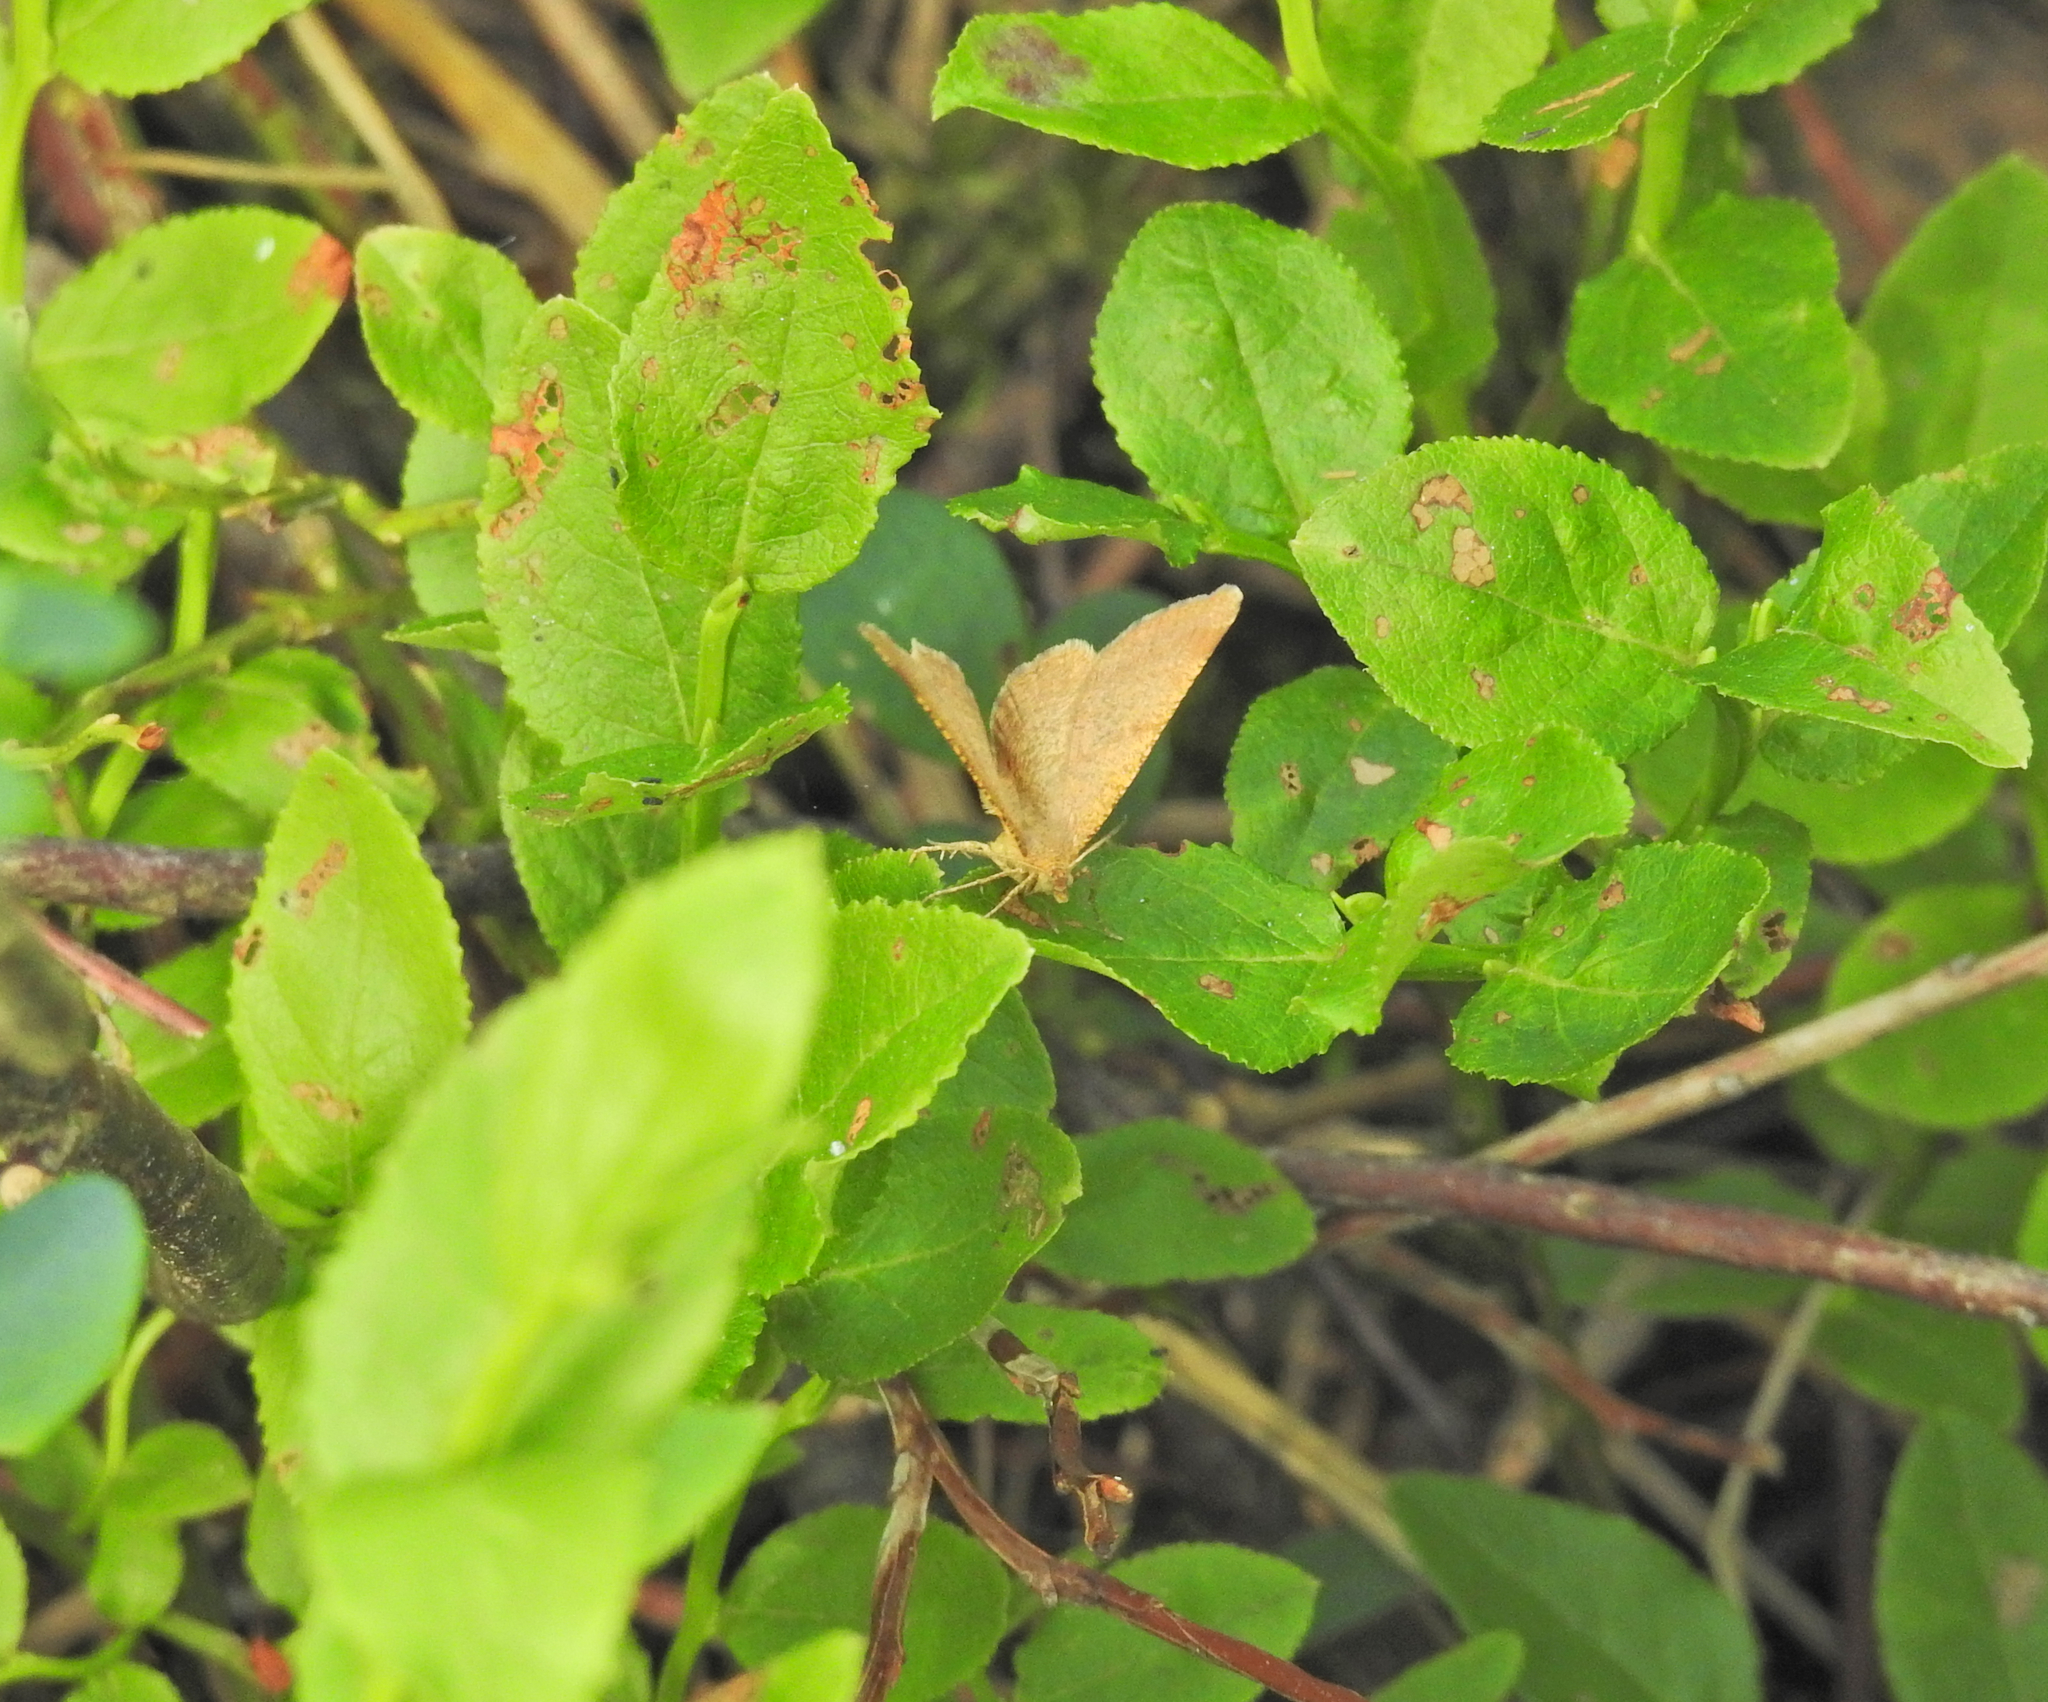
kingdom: Animalia
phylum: Arthropoda
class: Insecta
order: Lepidoptera
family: Geometridae
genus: Angerona
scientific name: Angerona prunaria
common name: Orange moth
